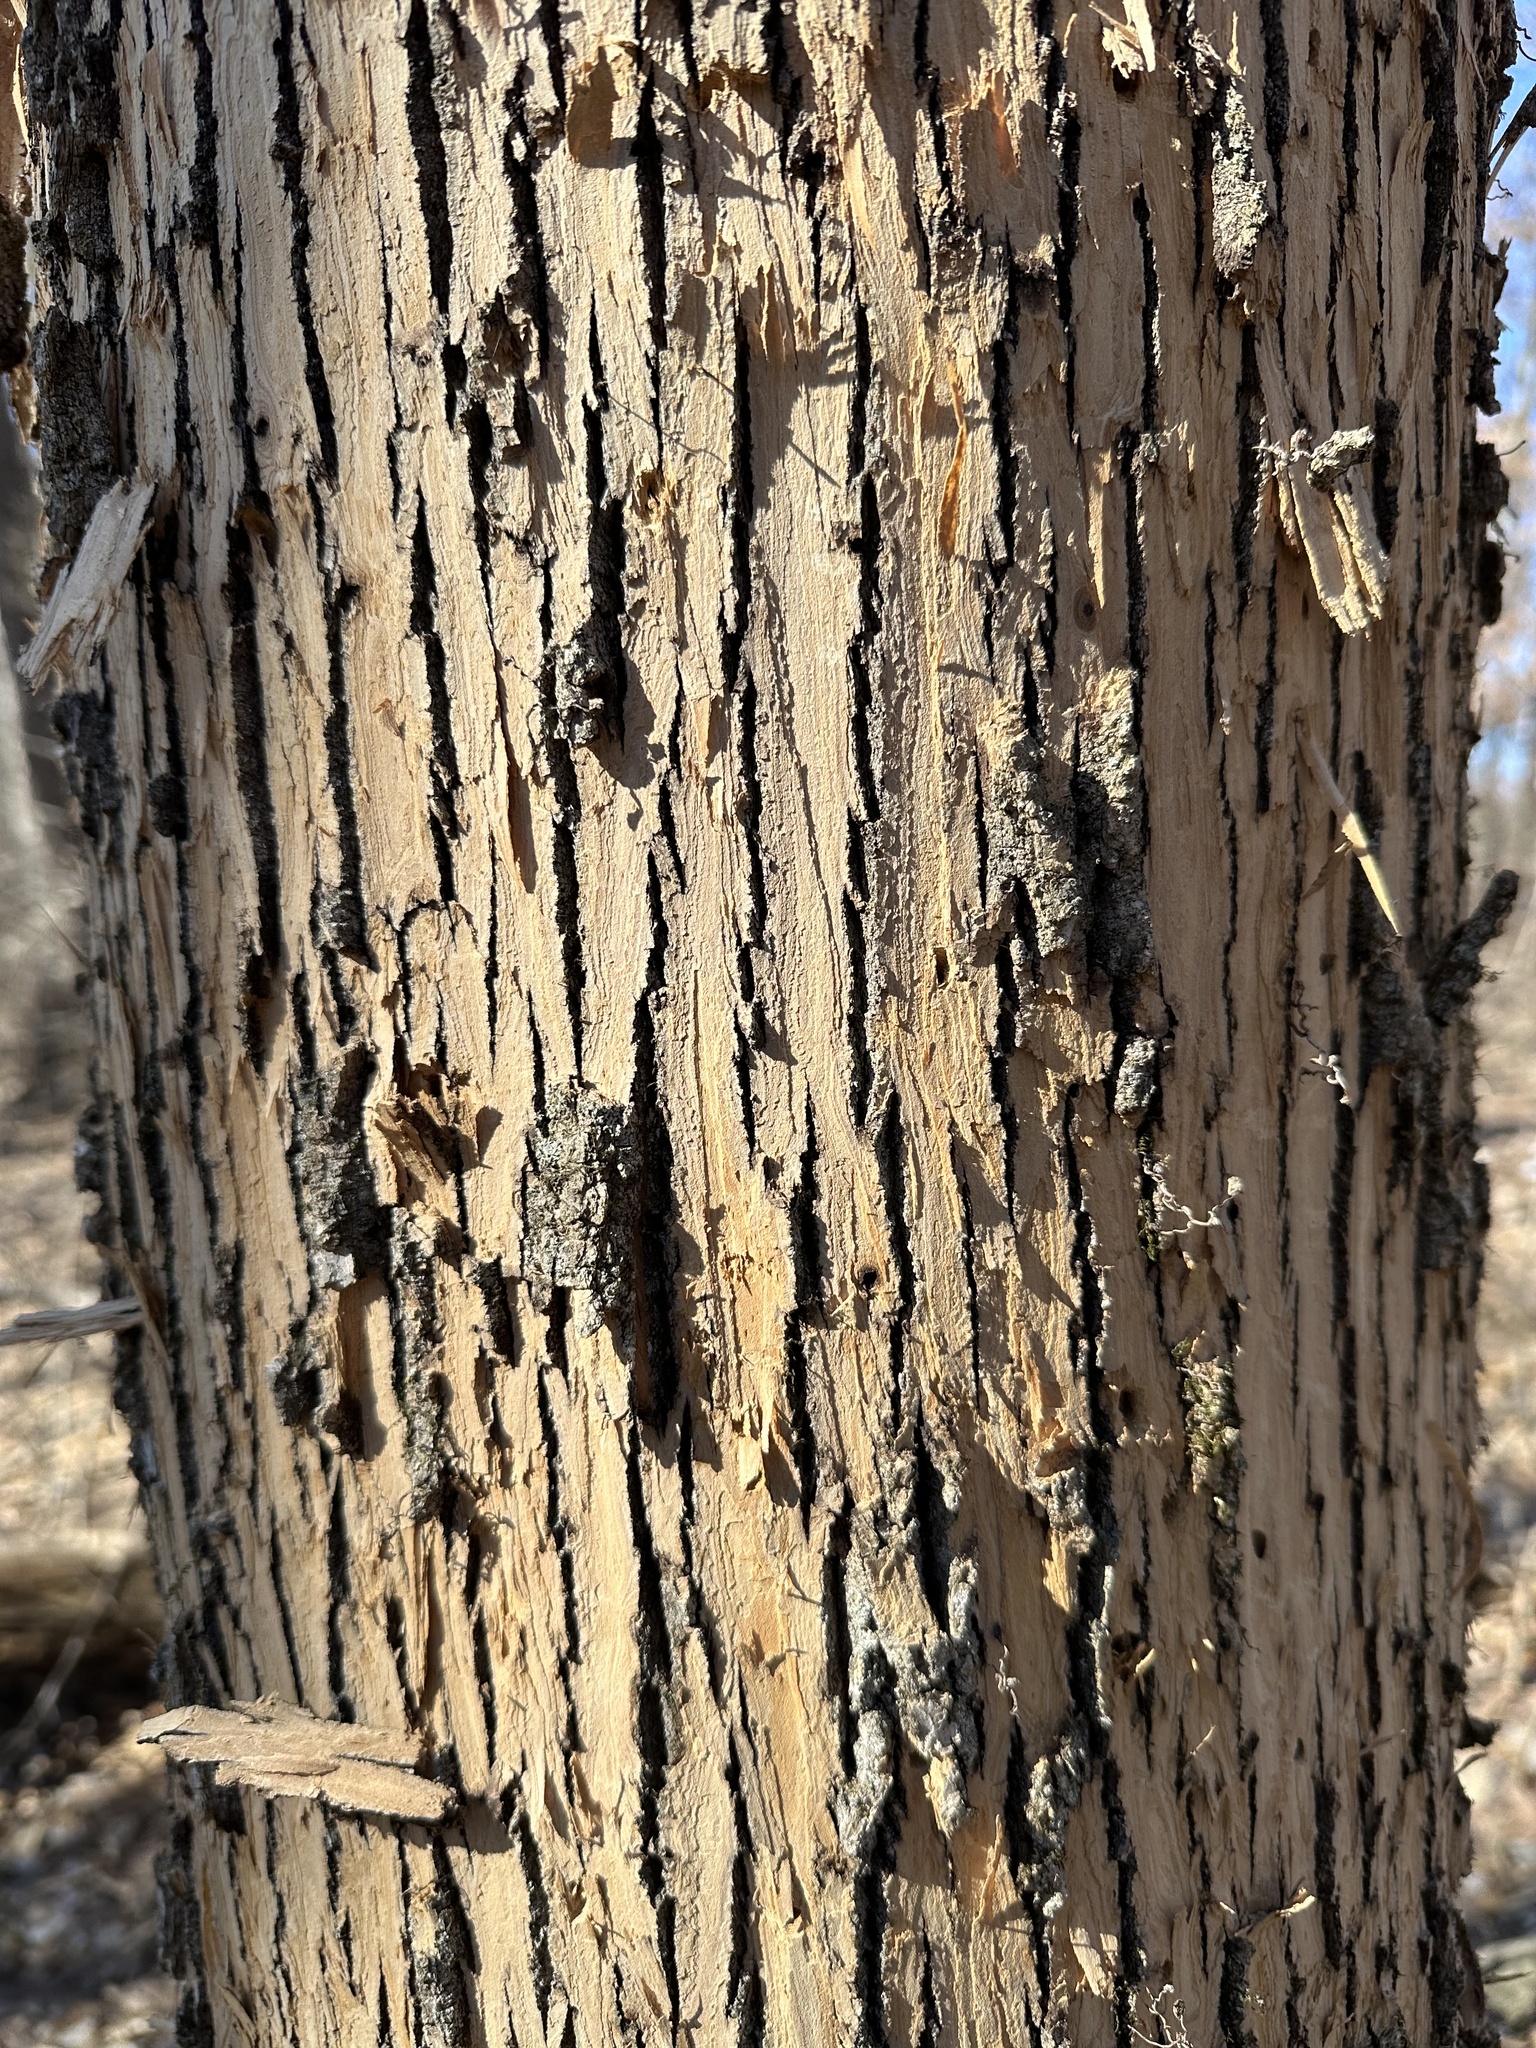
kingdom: Animalia
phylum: Arthropoda
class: Insecta
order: Coleoptera
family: Buprestidae
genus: Agrilus
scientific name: Agrilus planipennis
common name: Emerald ash borer
